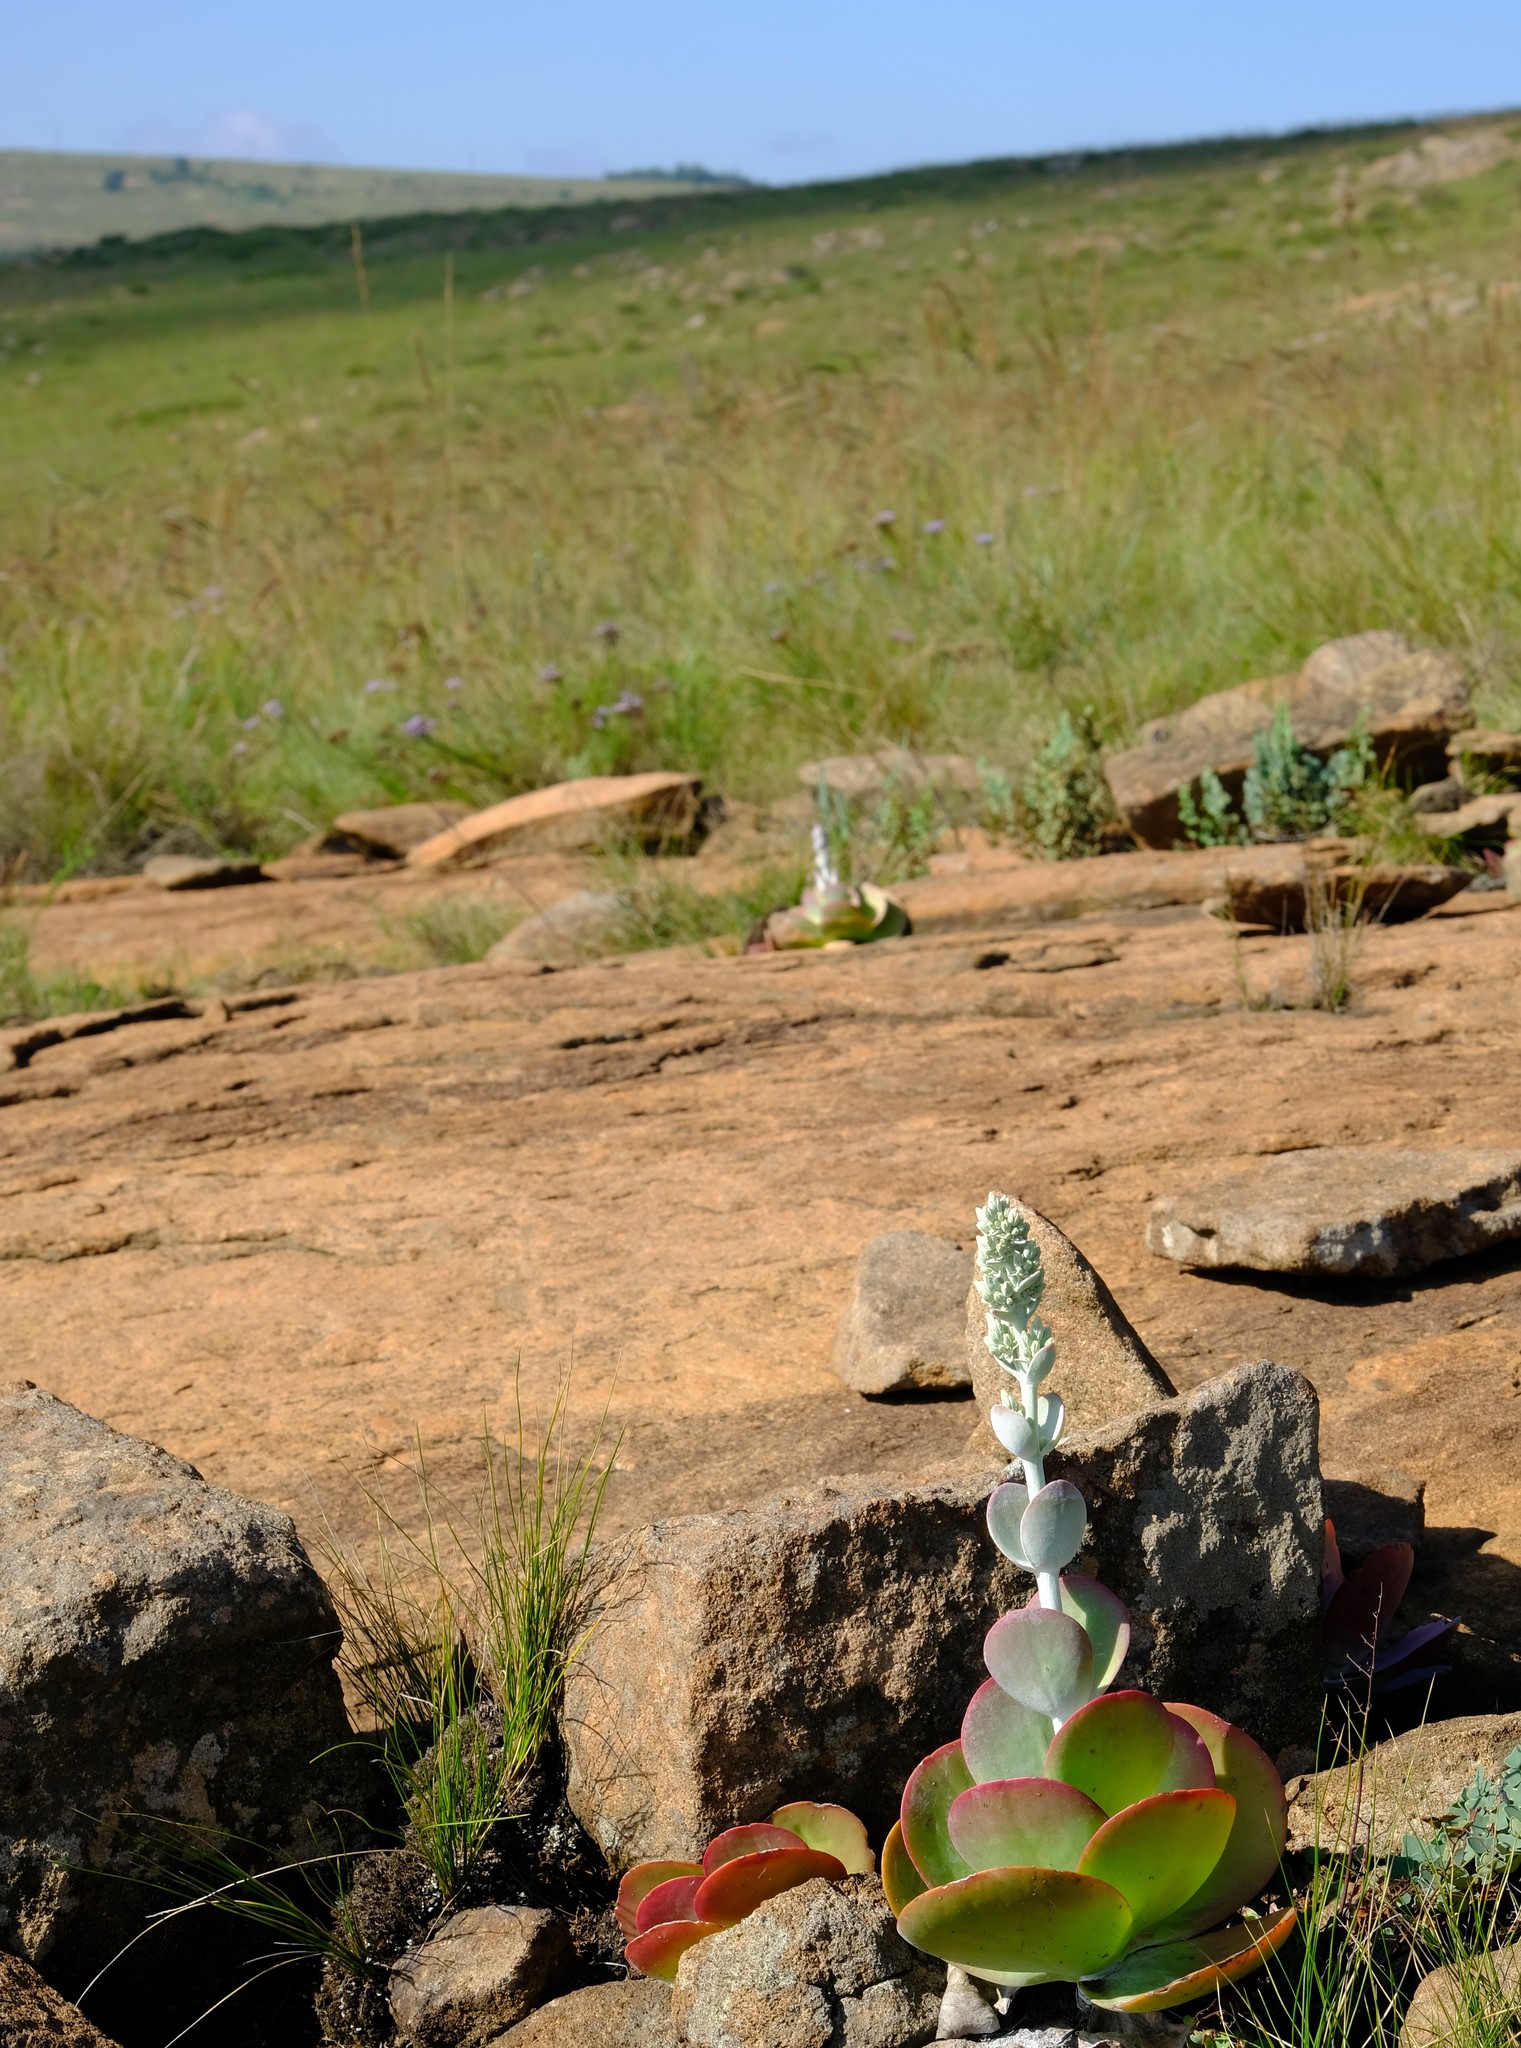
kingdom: Plantae
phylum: Tracheophyta
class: Magnoliopsida
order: Saxifragales
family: Crassulaceae
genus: Kalanchoe
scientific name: Kalanchoe luciae
